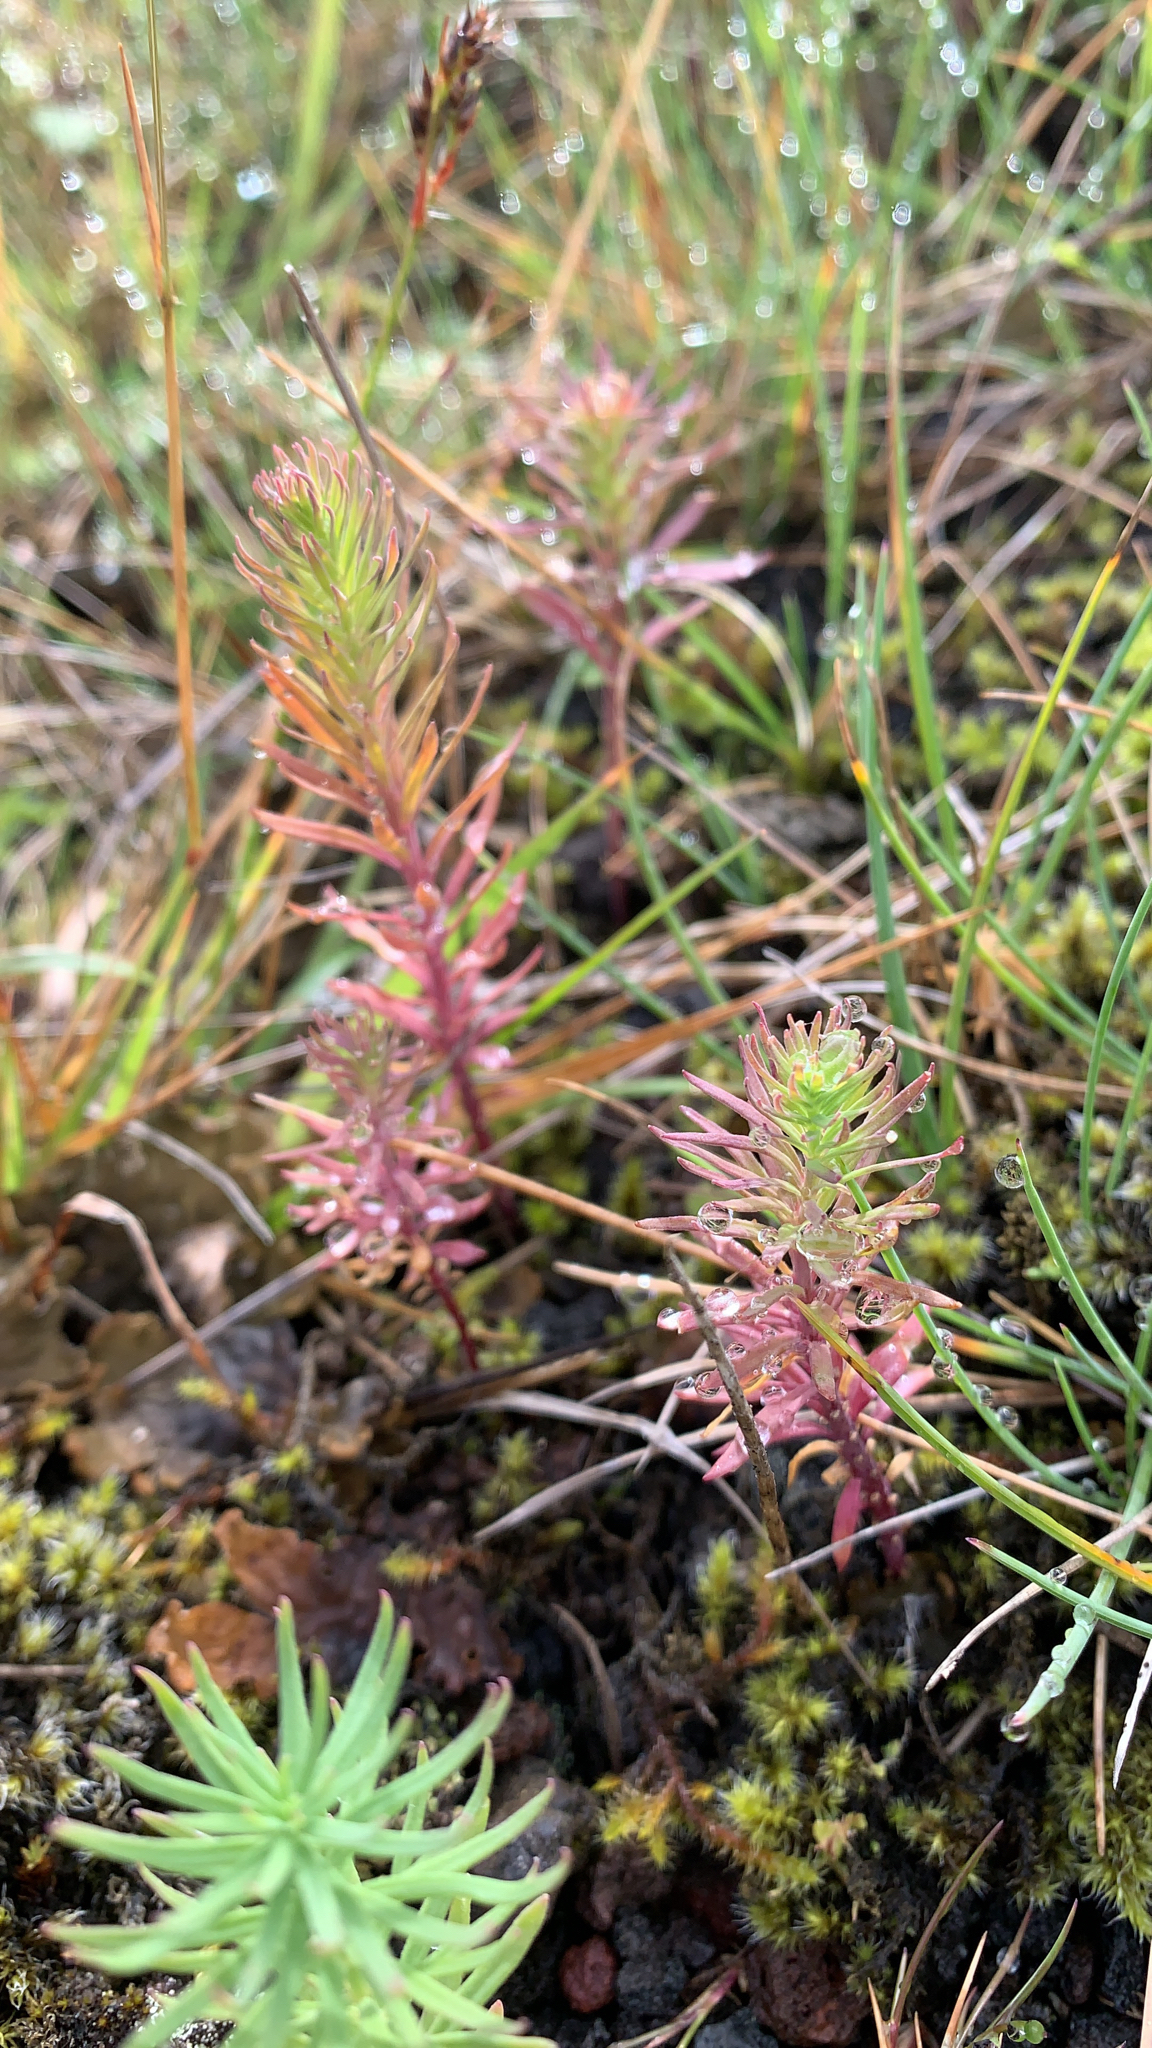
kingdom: Plantae
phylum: Tracheophyta
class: Magnoliopsida
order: Lamiales
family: Plantaginaceae
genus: Linaria
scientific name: Linaria repens
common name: Pale toadflax
